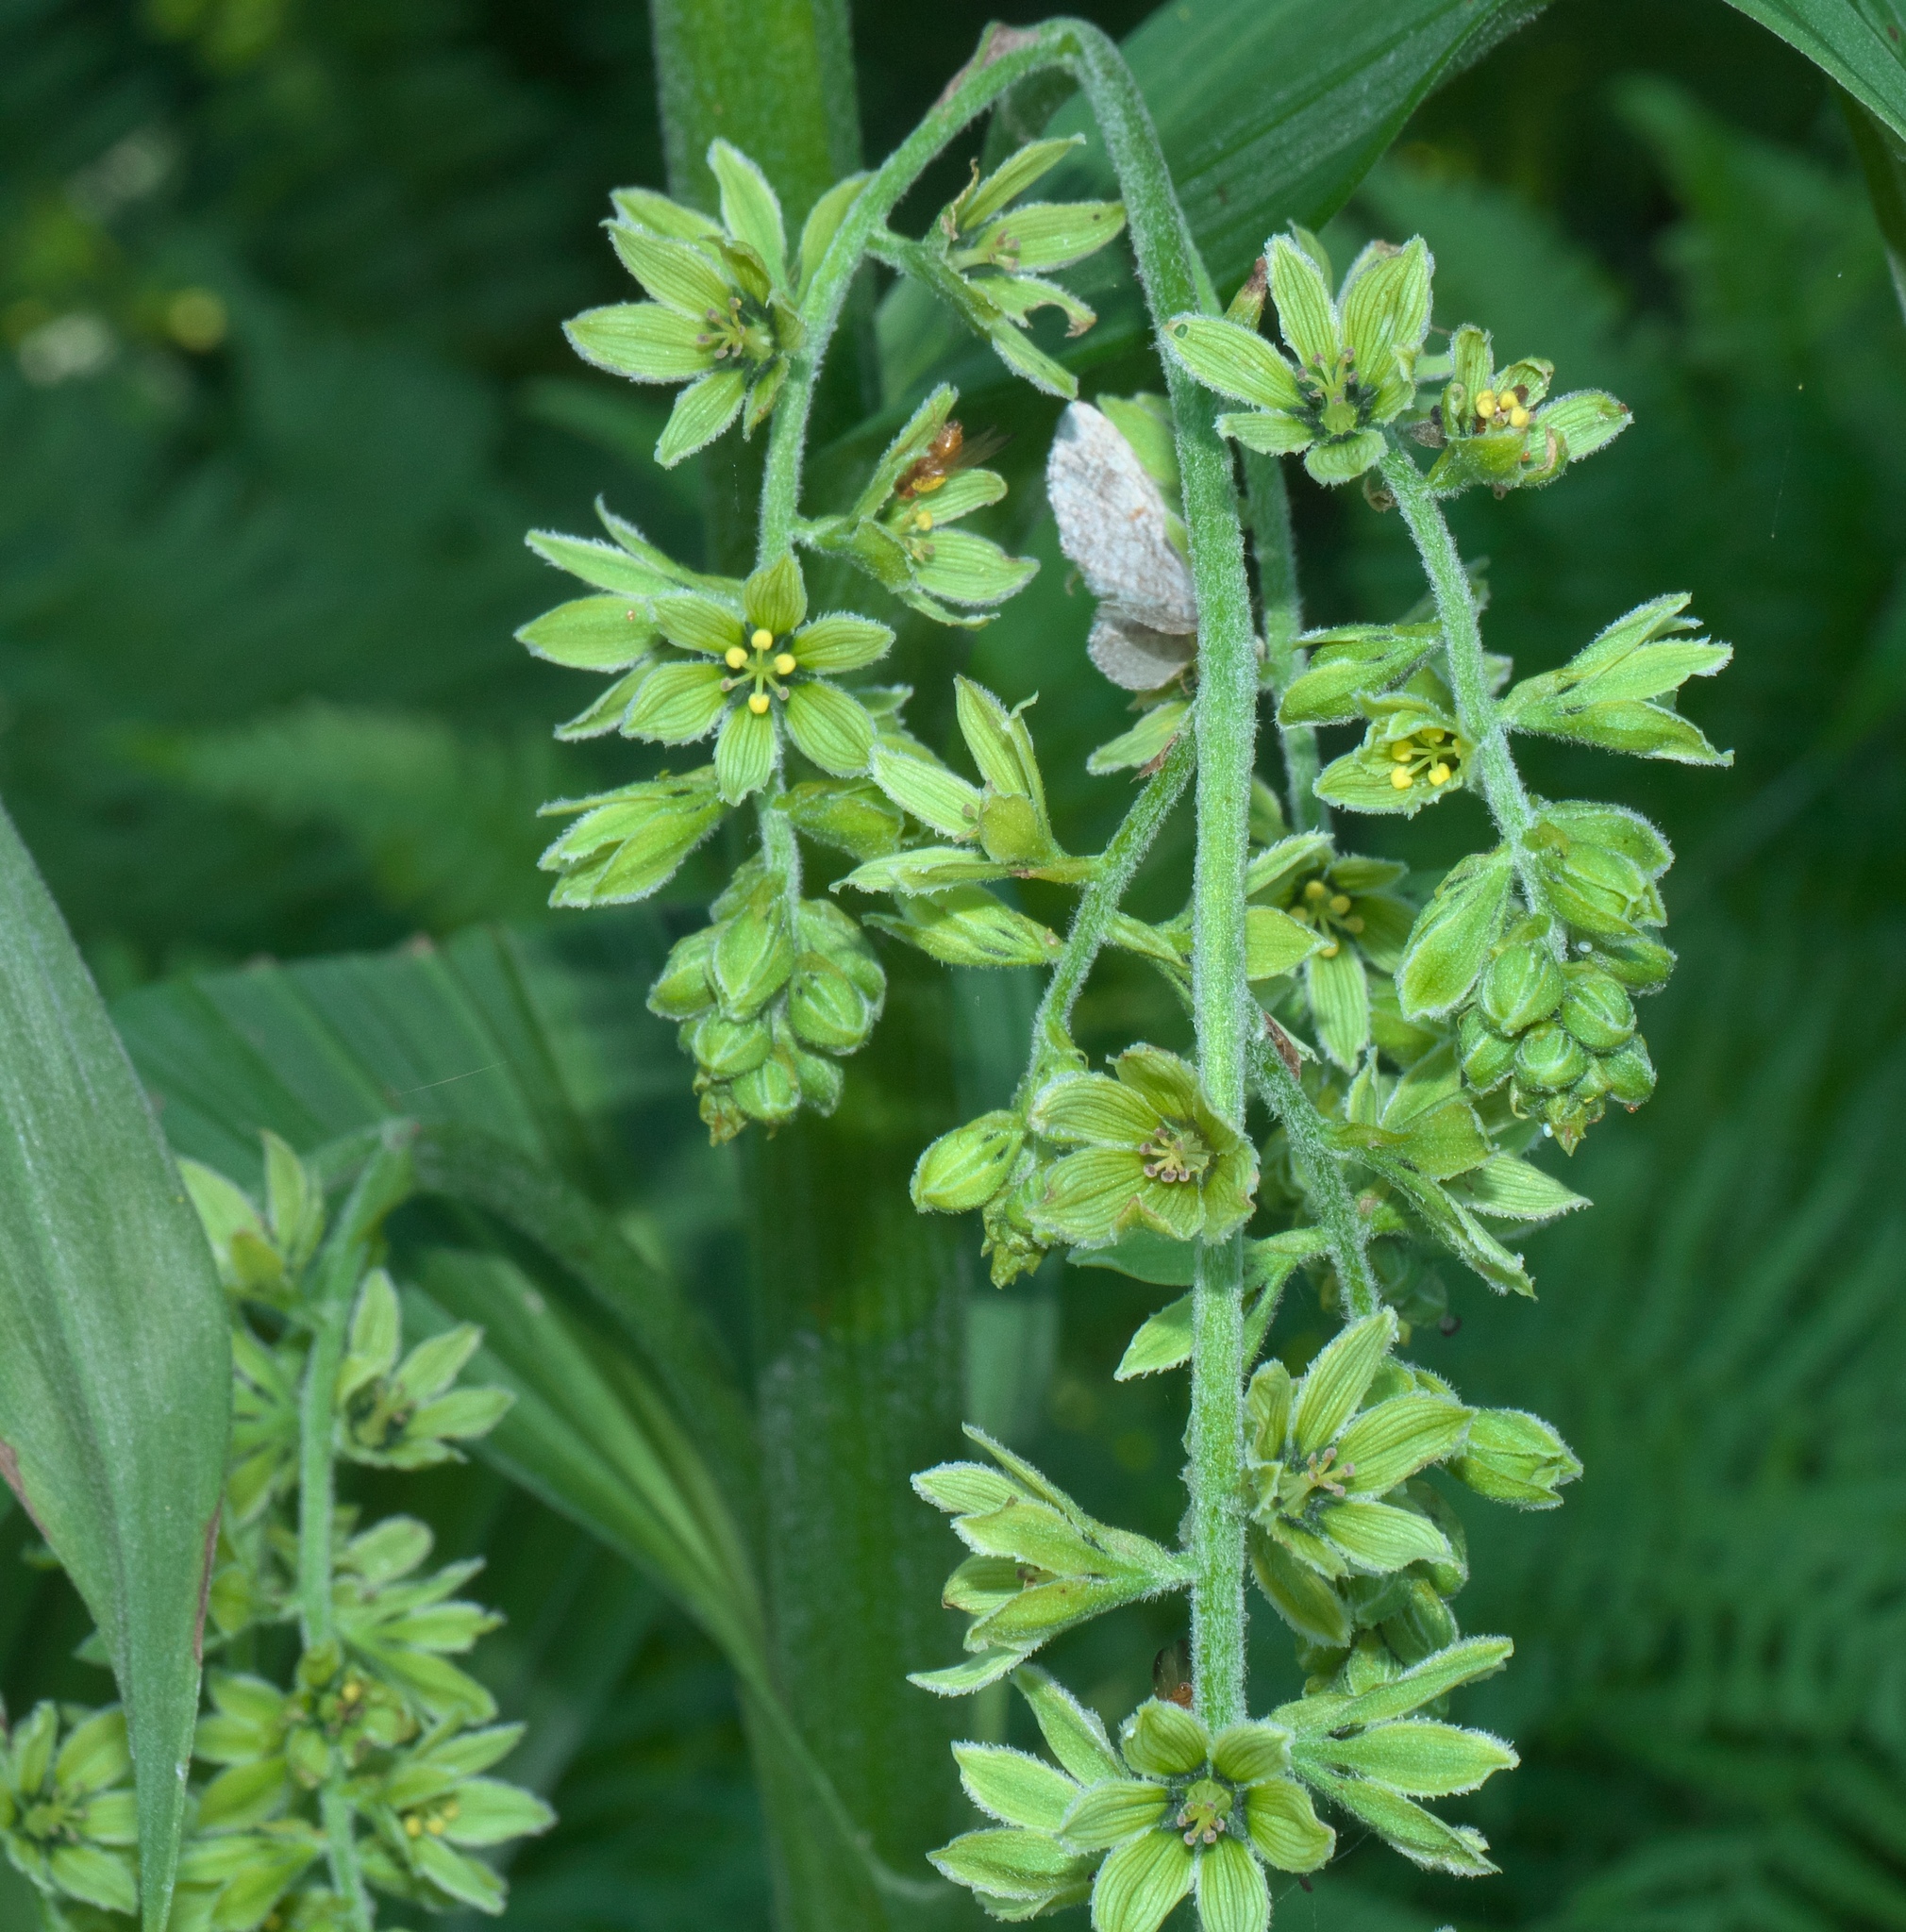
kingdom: Plantae
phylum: Tracheophyta
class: Liliopsida
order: Liliales
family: Melanthiaceae
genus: Veratrum
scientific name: Veratrum viride
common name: American false hellebore
